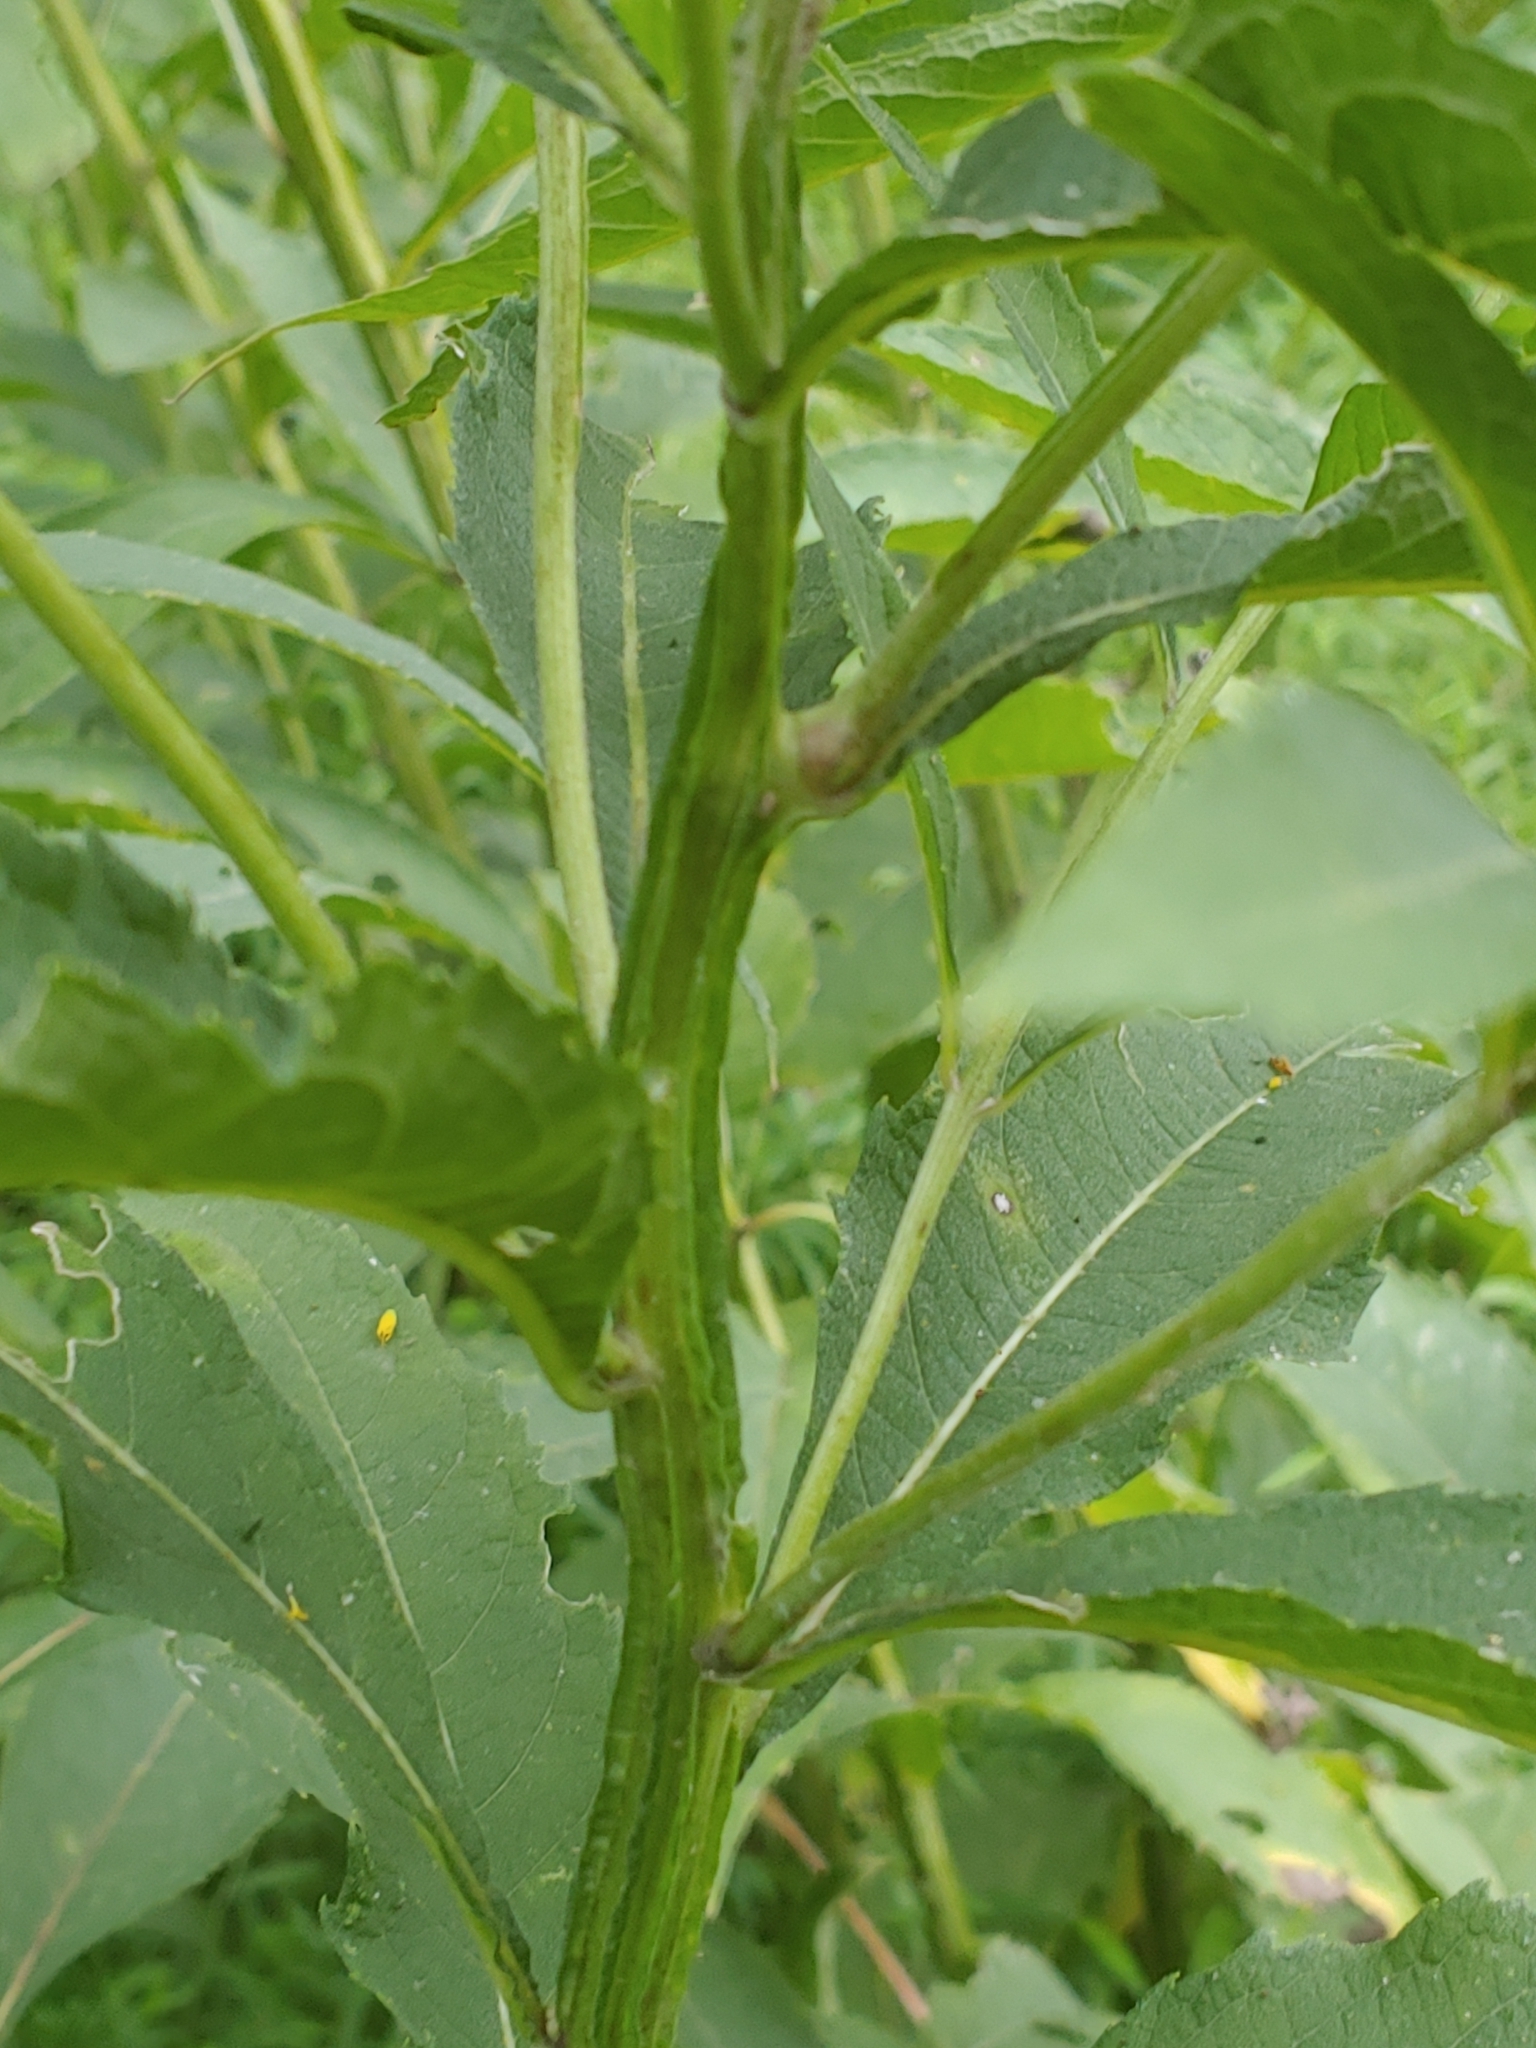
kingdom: Plantae
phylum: Tracheophyta
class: Magnoliopsida
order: Asterales
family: Asteraceae
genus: Verbesina
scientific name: Verbesina alternifolia
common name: Wingstem
